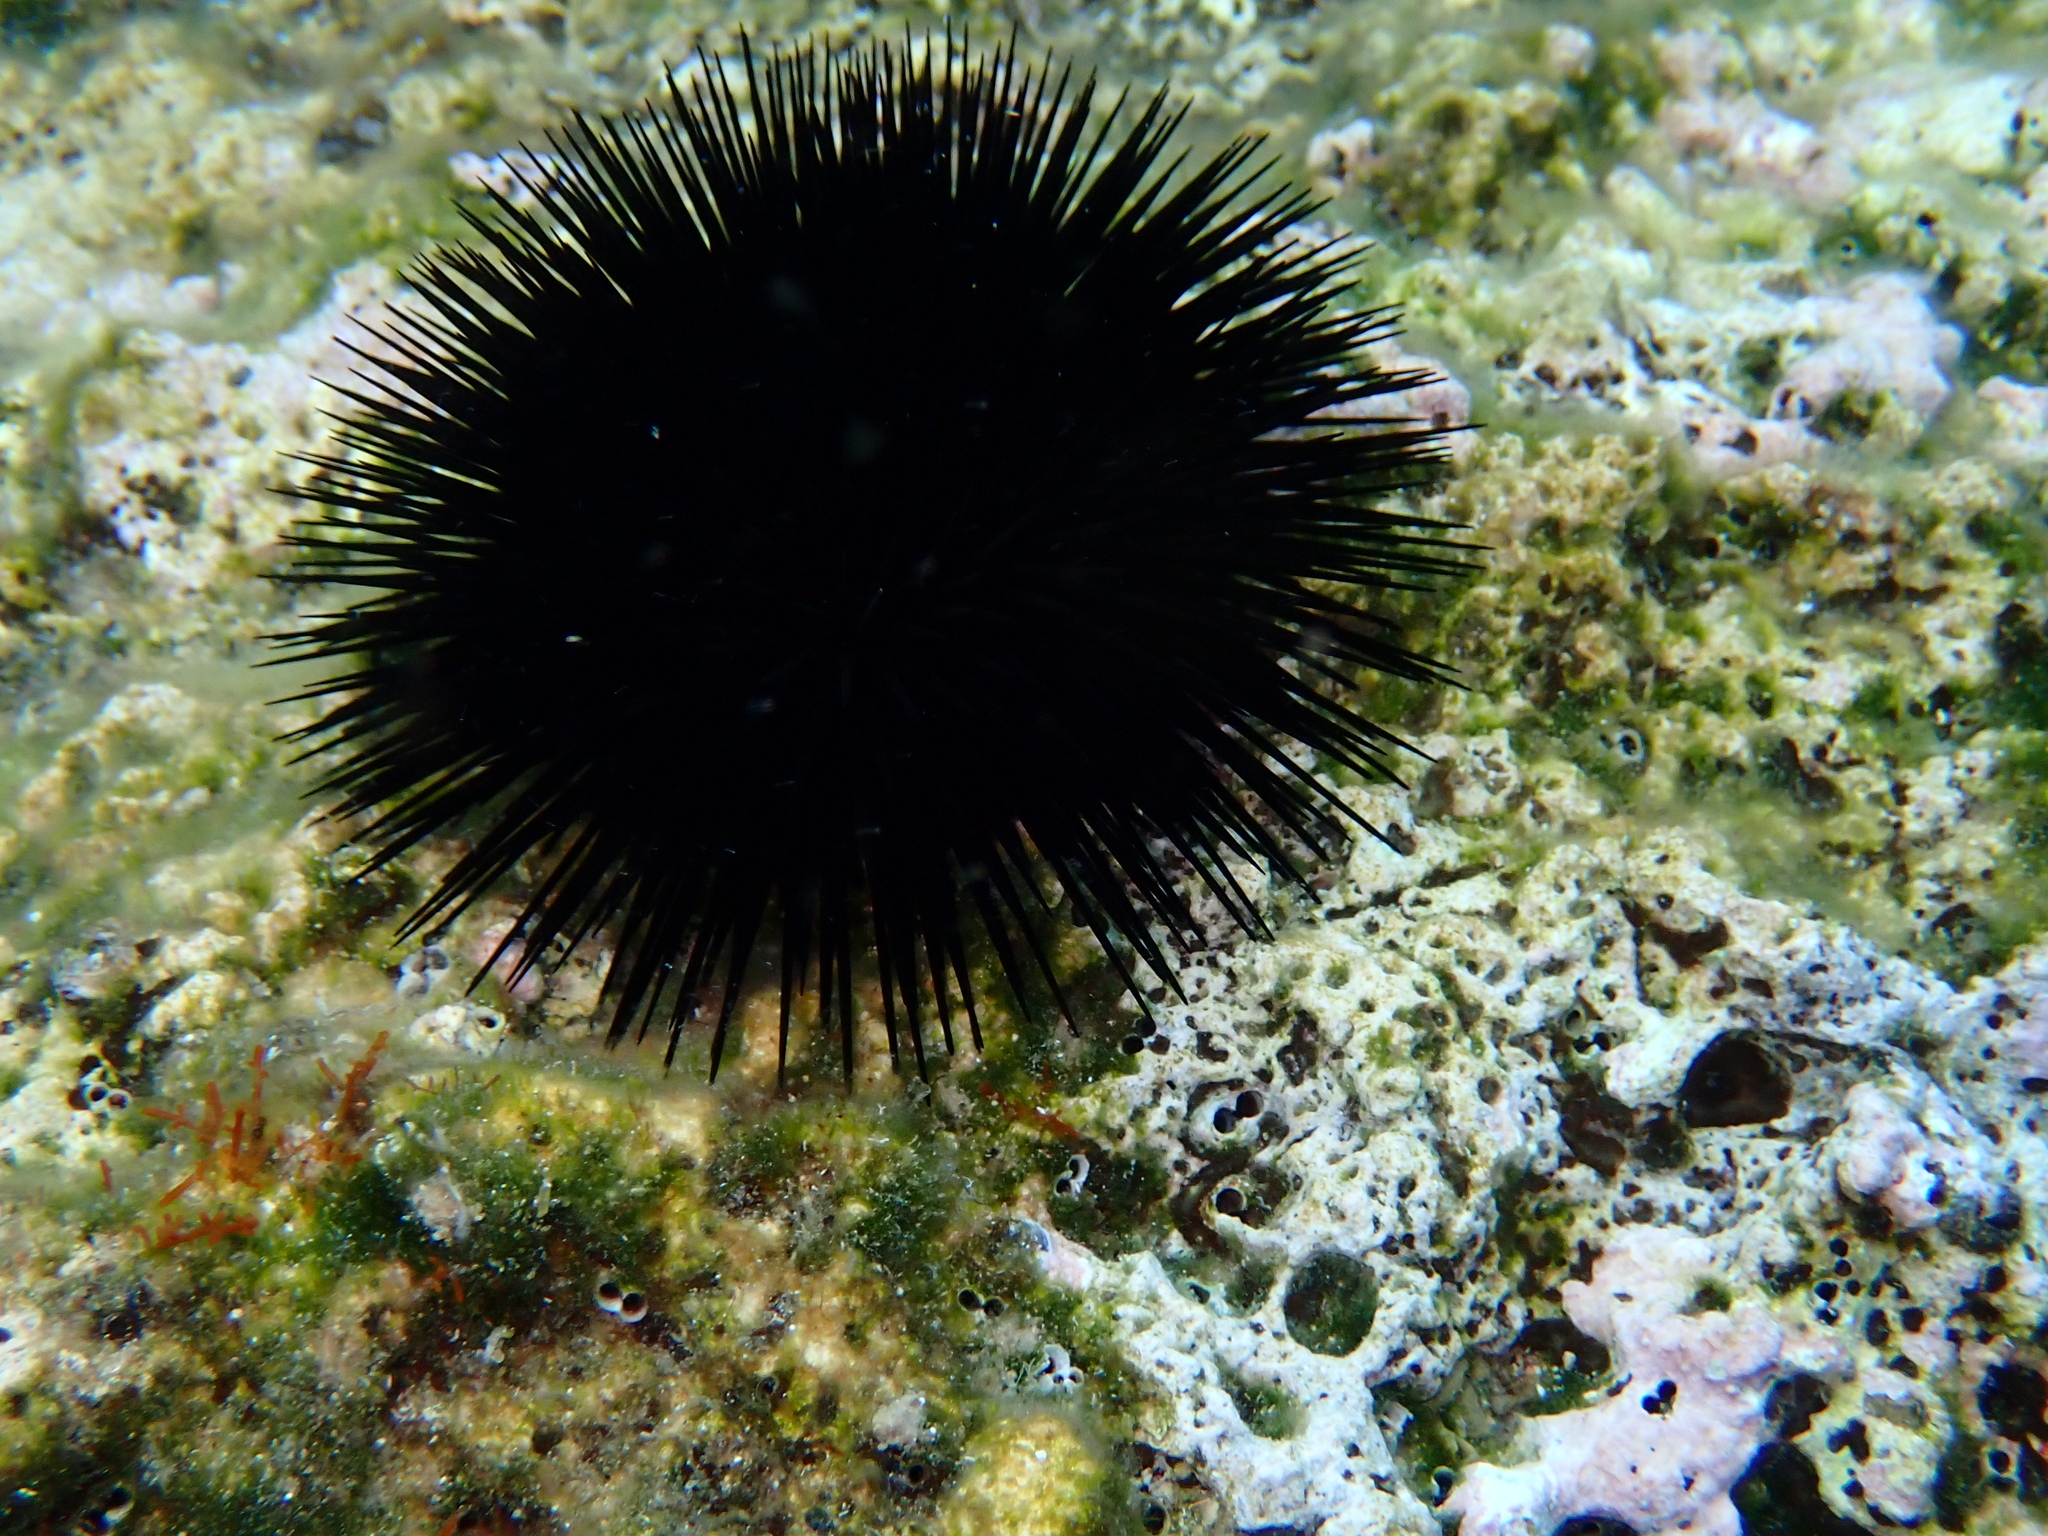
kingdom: Animalia
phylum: Echinodermata
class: Echinoidea
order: Arbacioida
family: Arbaciidae
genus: Arbacia
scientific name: Arbacia lixula
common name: Black sea urchin
